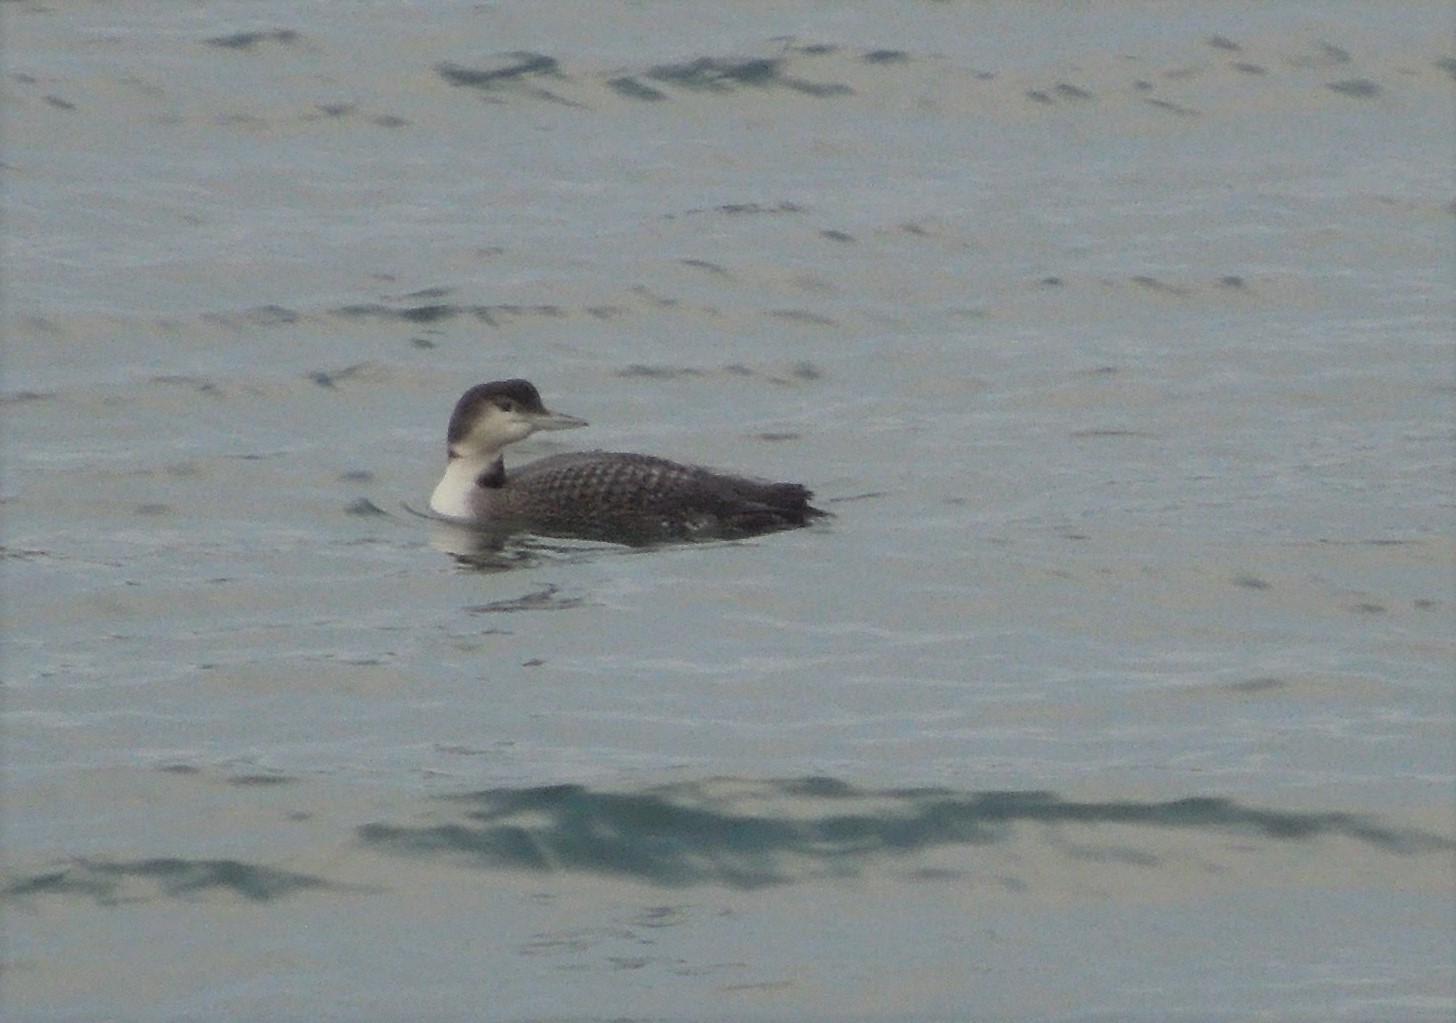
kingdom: Animalia
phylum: Chordata
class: Aves
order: Gaviiformes
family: Gaviidae
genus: Gavia
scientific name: Gavia immer
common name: Common loon
